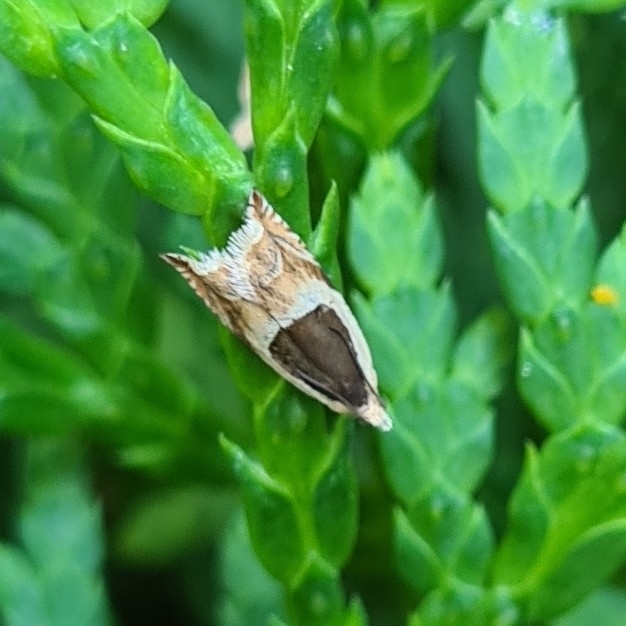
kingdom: Animalia
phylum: Arthropoda
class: Insecta
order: Lepidoptera
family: Tortricidae
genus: Ancylis
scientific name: Ancylis badiana
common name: Common roller
